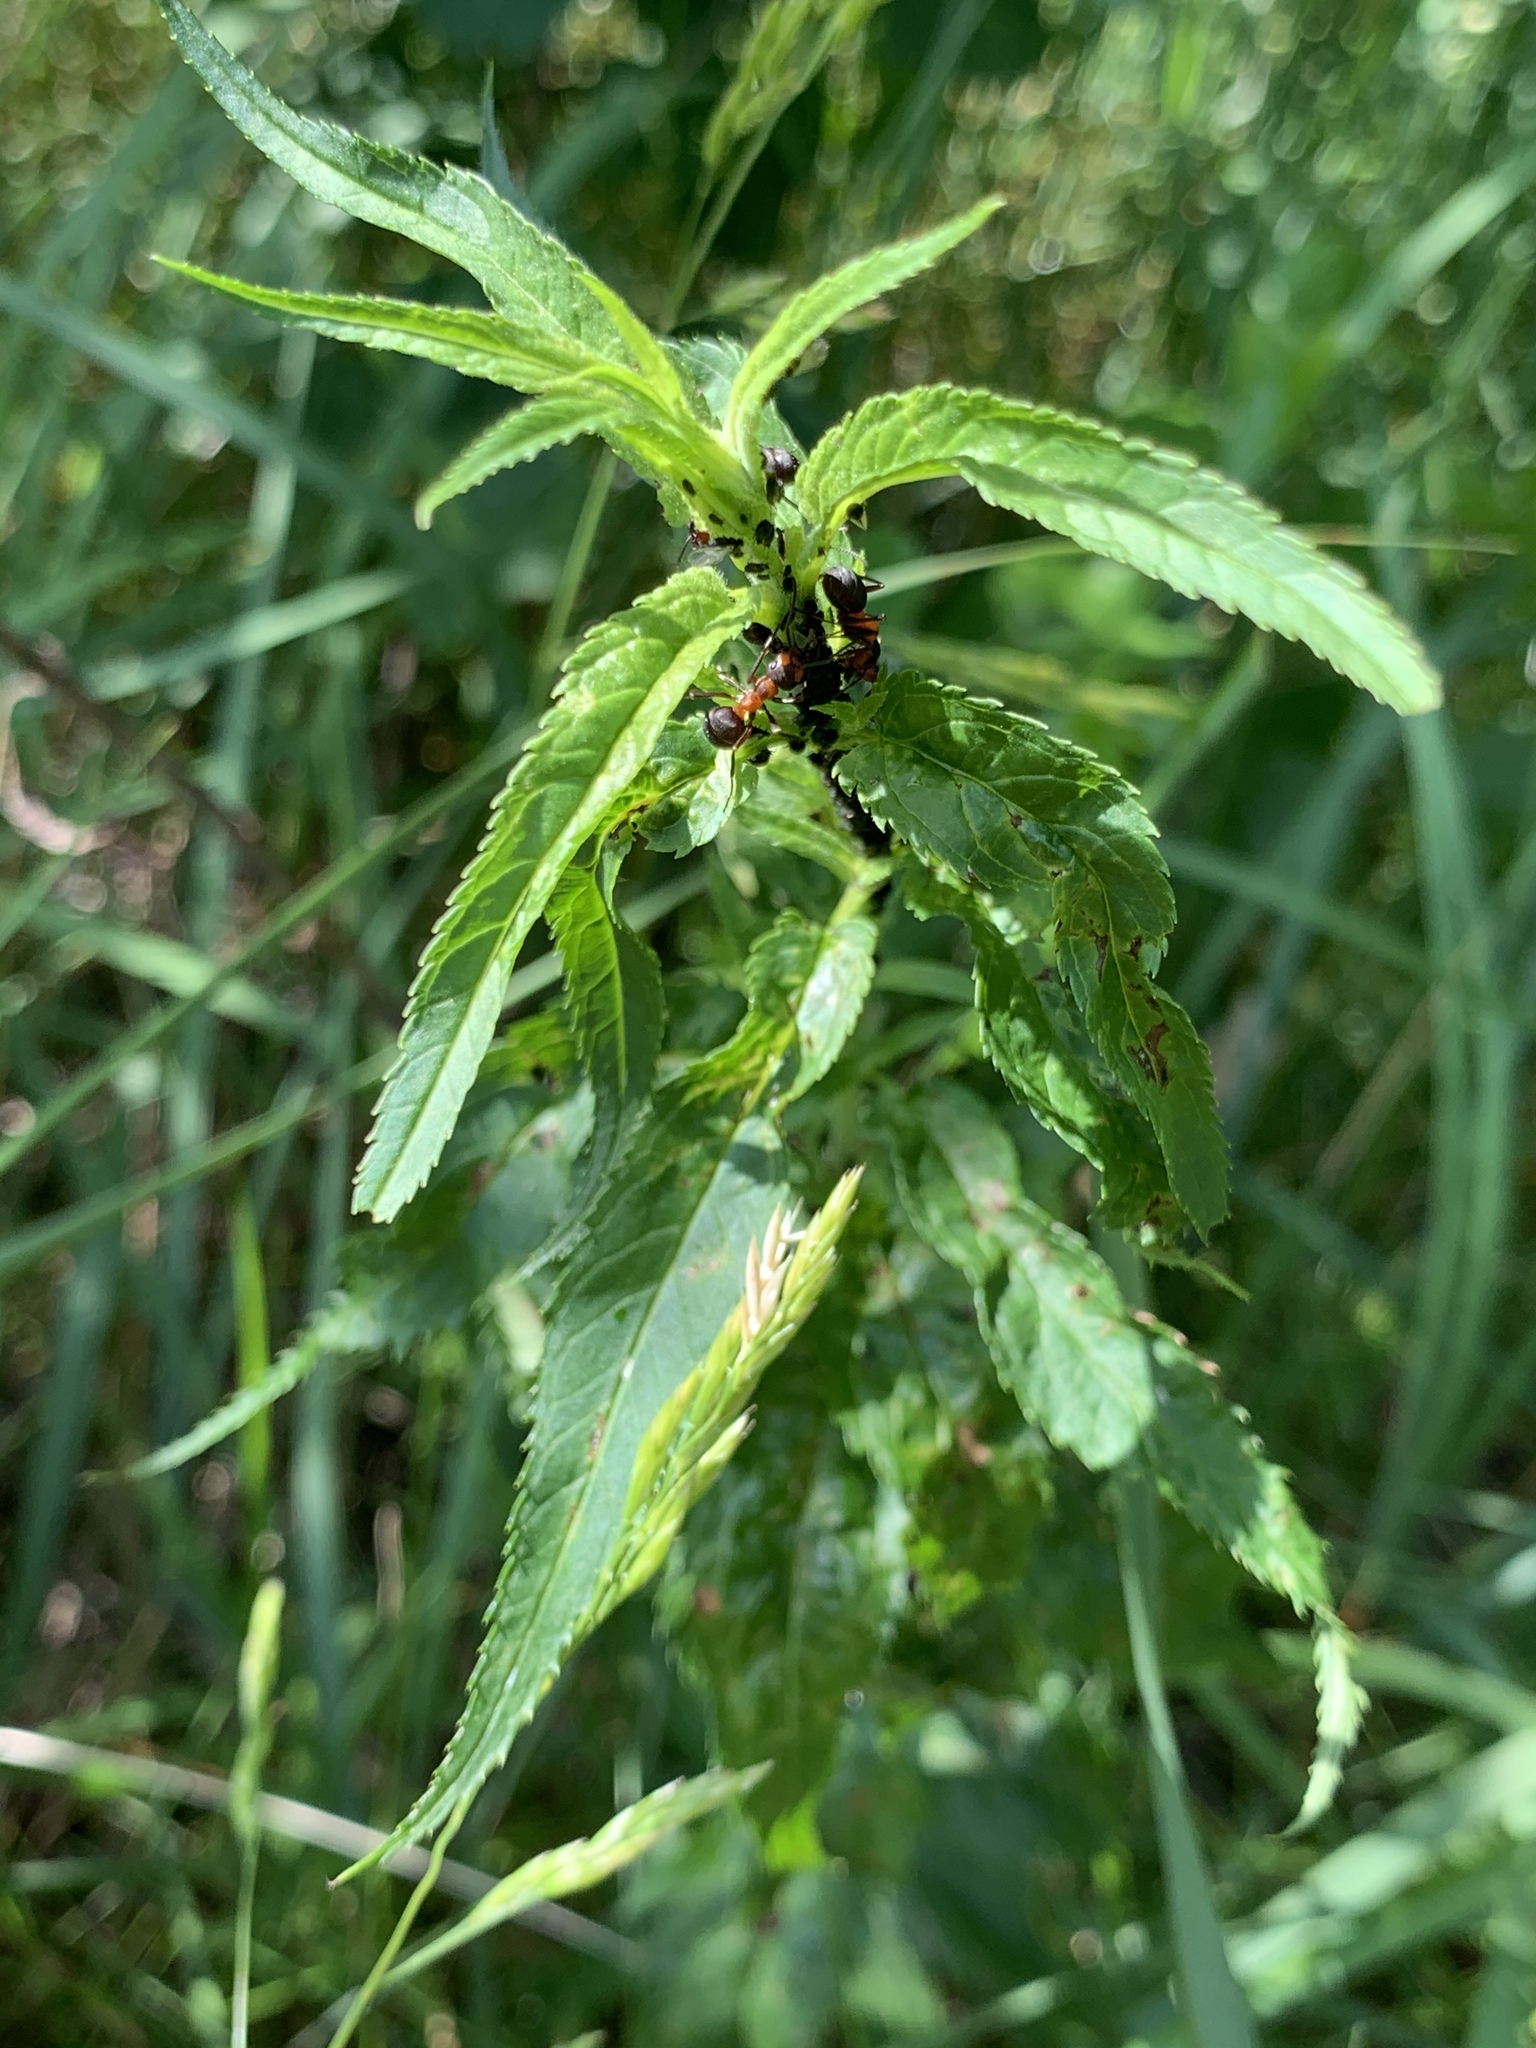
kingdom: Plantae
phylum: Tracheophyta
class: Magnoliopsida
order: Lamiales
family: Plantaginaceae
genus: Veronica
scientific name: Veronica longifolia
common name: Garden speedwell
